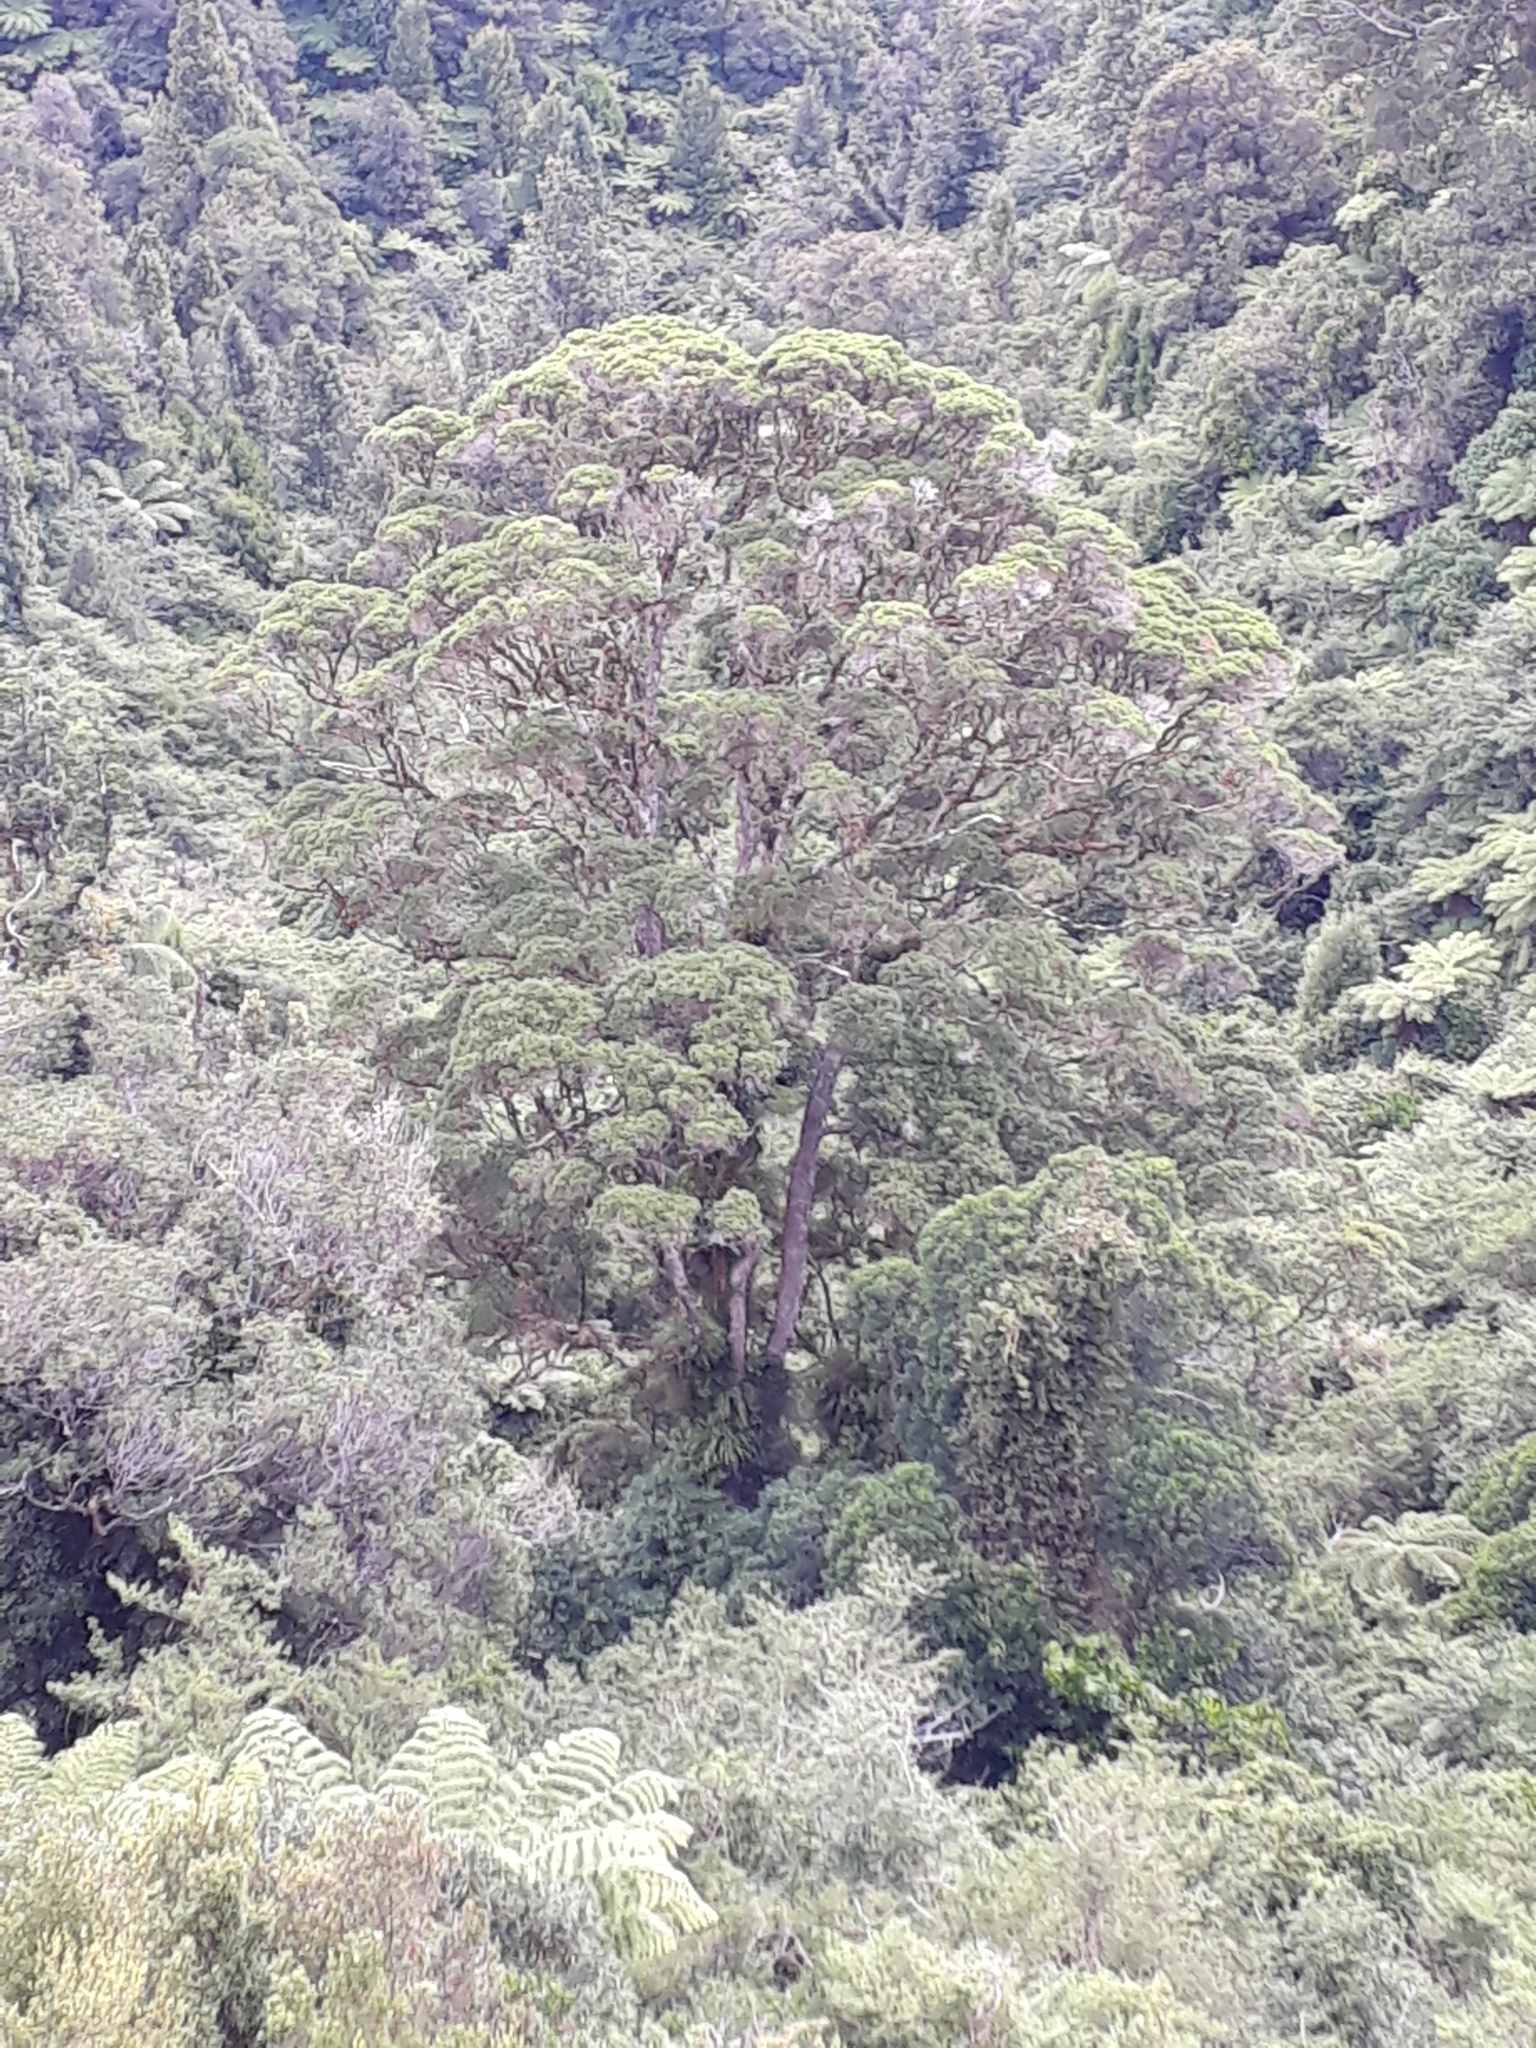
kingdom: Plantae
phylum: Tracheophyta
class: Magnoliopsida
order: Myrtales
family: Myrtaceae
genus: Metrosideros
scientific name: Metrosideros robusta
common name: Northern rata
